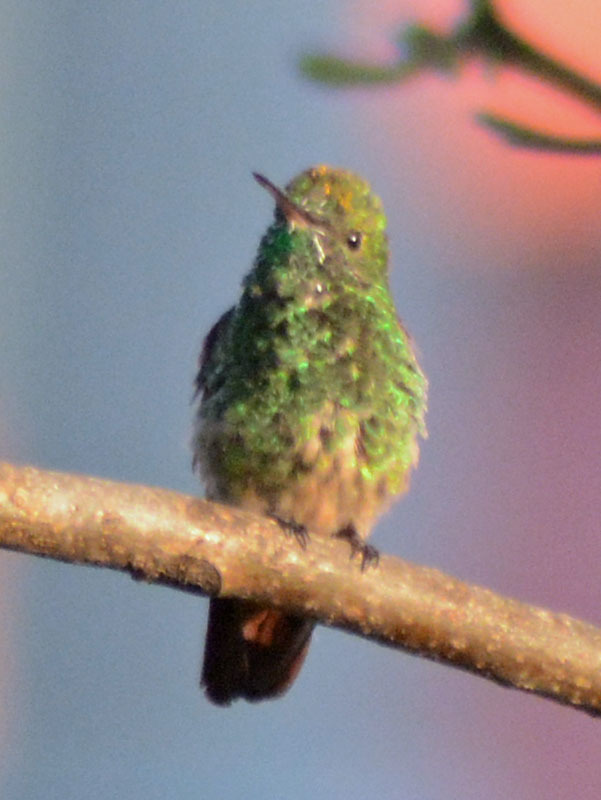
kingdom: Animalia
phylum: Chordata
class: Aves
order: Apodiformes
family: Trochilidae
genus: Saucerottia
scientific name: Saucerottia beryllina
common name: Berylline hummingbird
